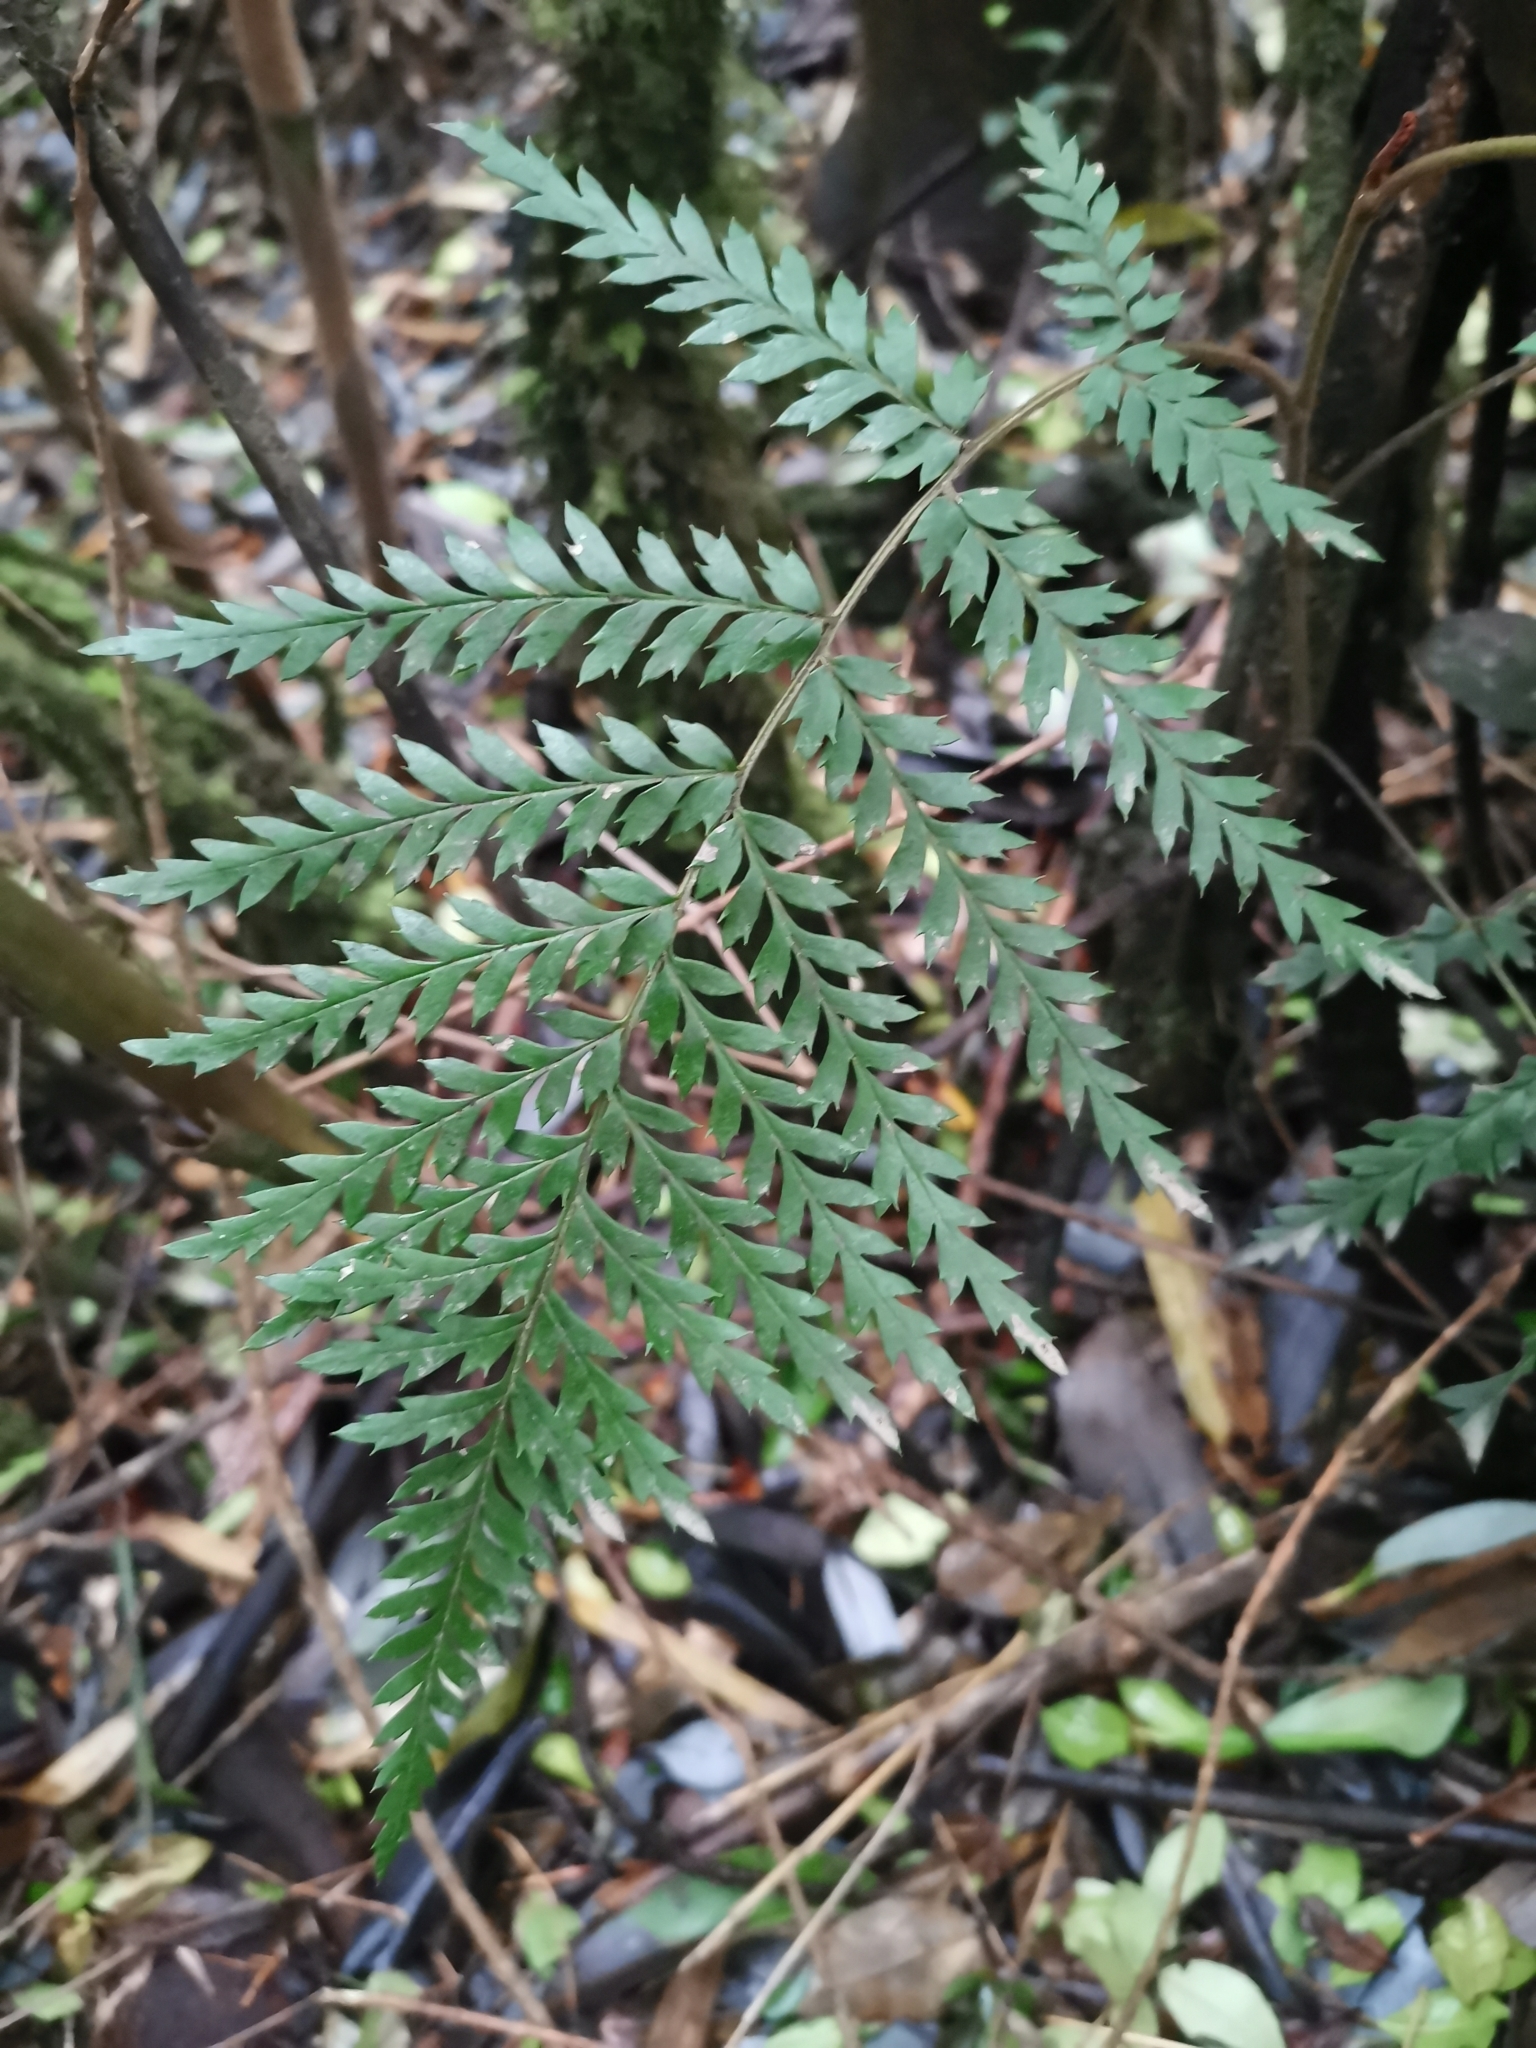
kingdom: Plantae
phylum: Tracheophyta
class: Magnoliopsida
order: Proteales
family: Proteaceae
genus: Lomatia
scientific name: Lomatia ferruginea
